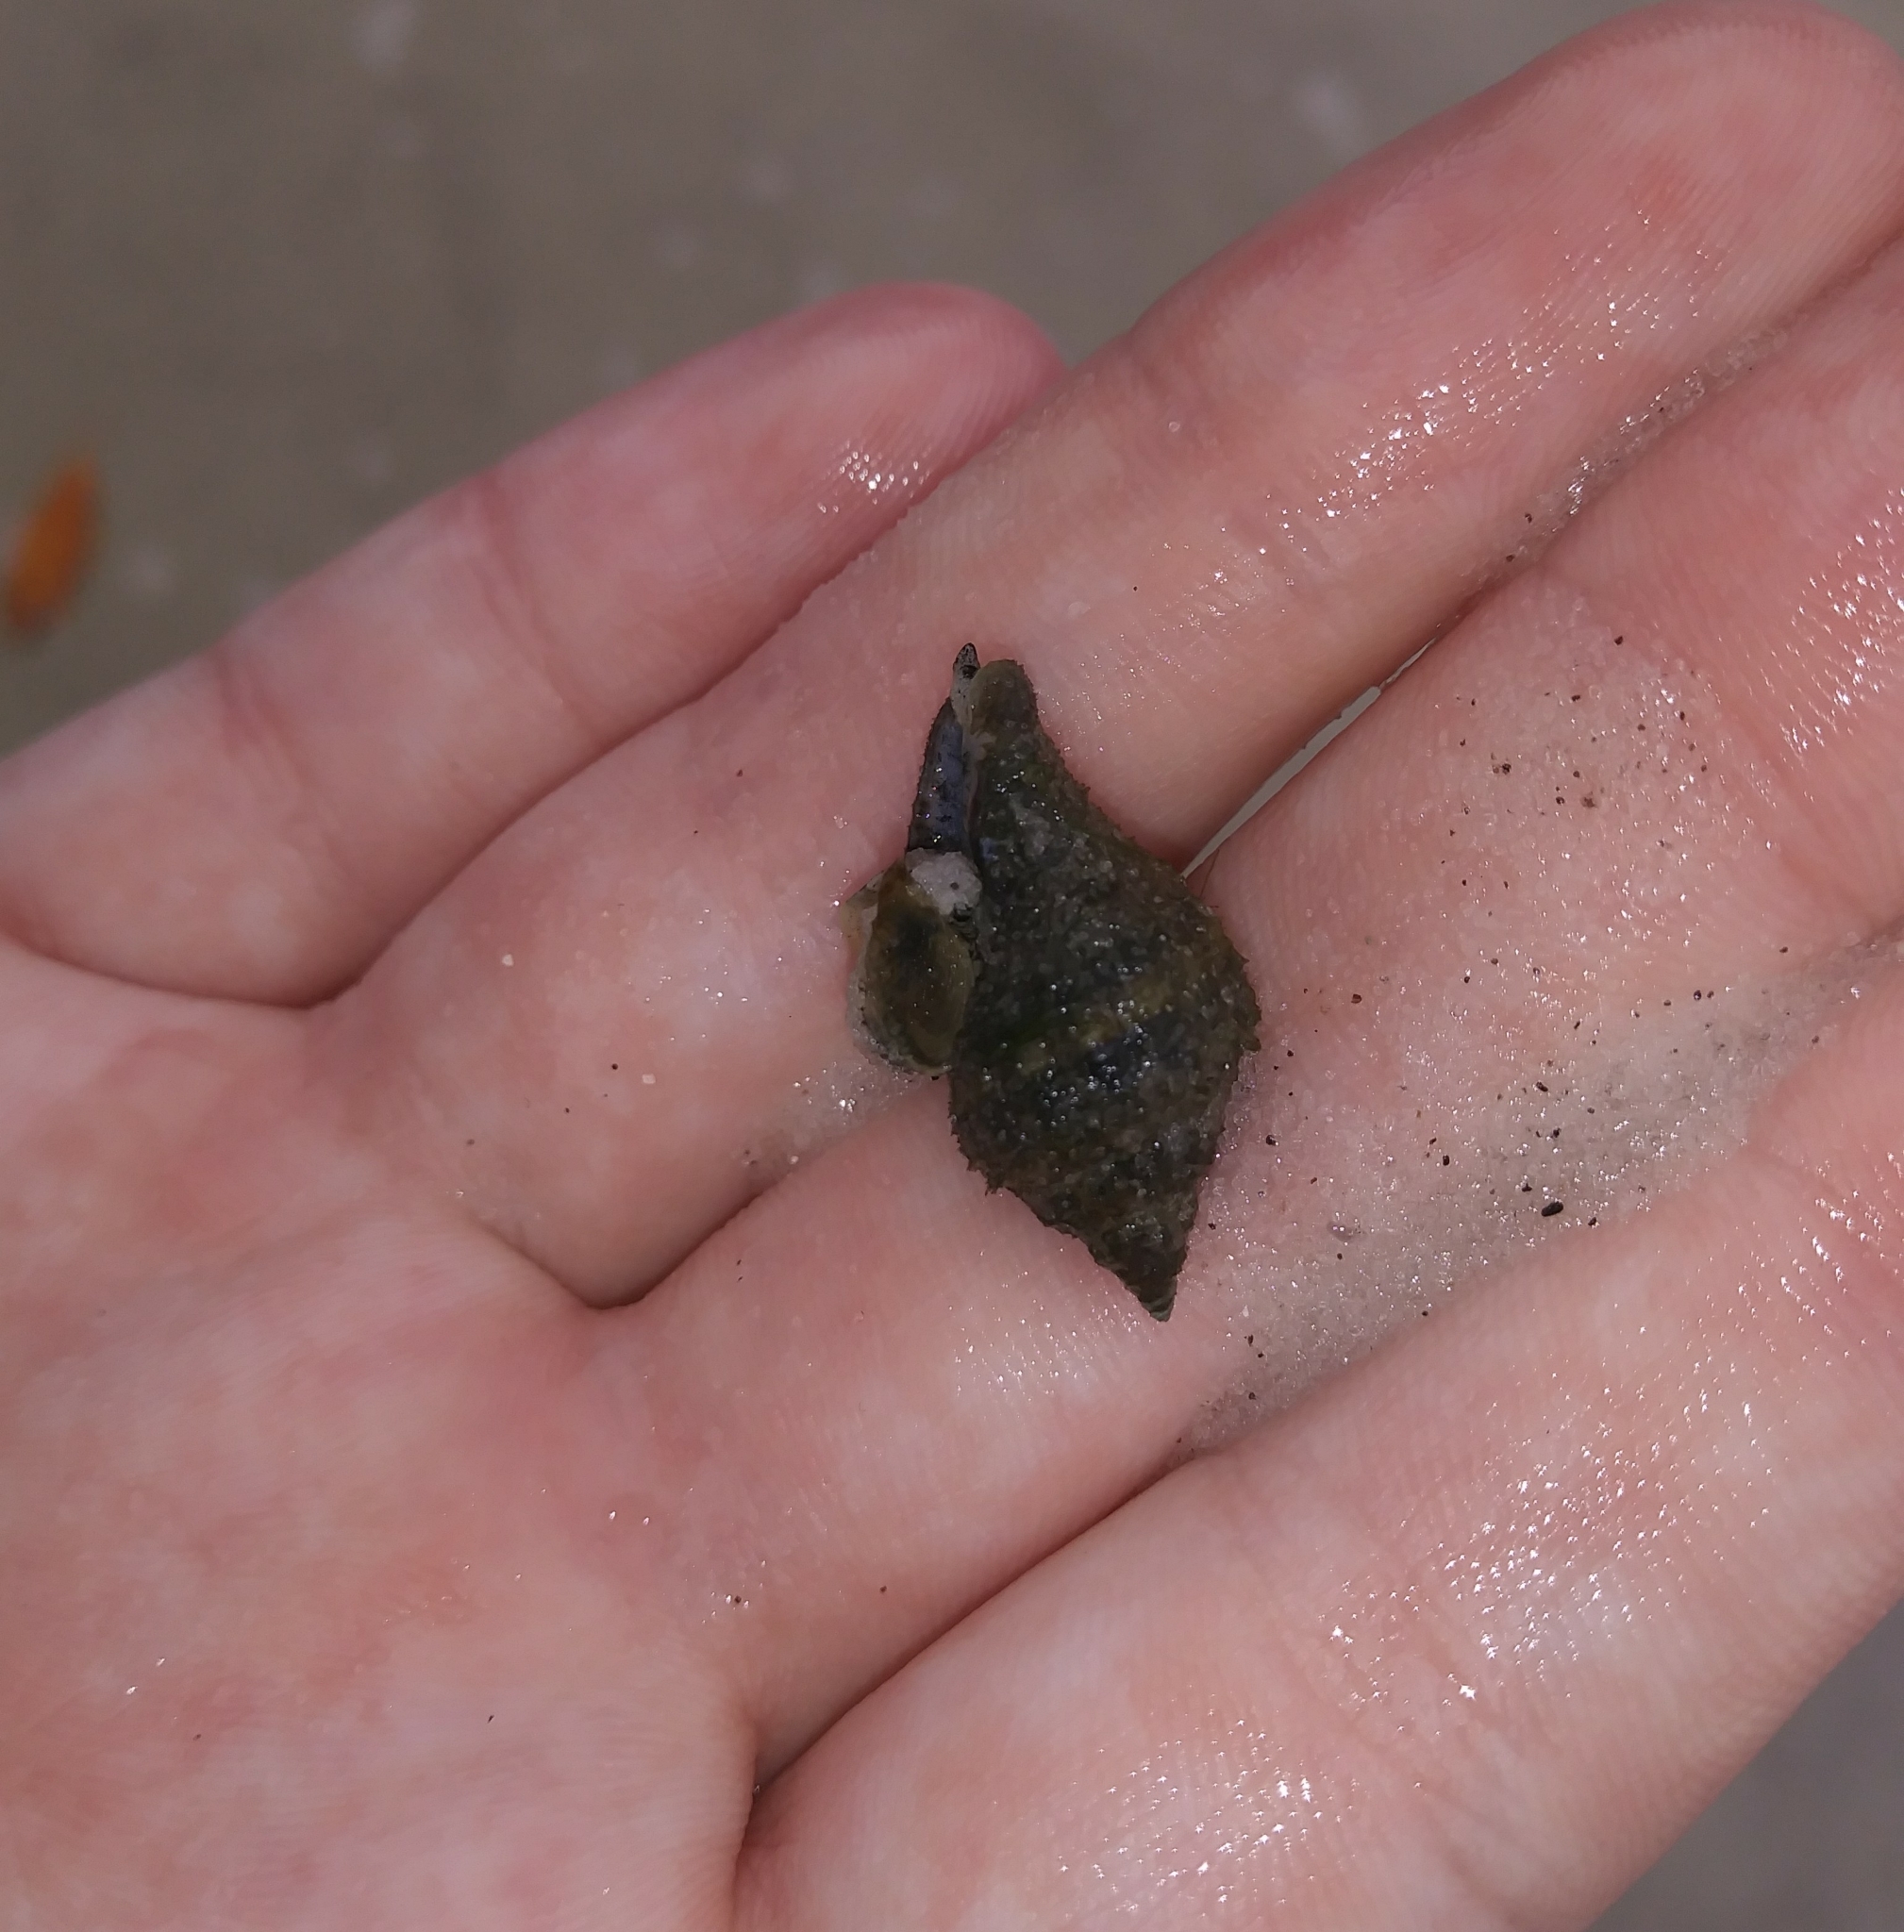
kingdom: Animalia
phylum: Mollusca
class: Gastropoda
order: Neogastropoda
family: Melongenidae
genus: Melongena
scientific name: Melongena corona
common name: American crown conch
